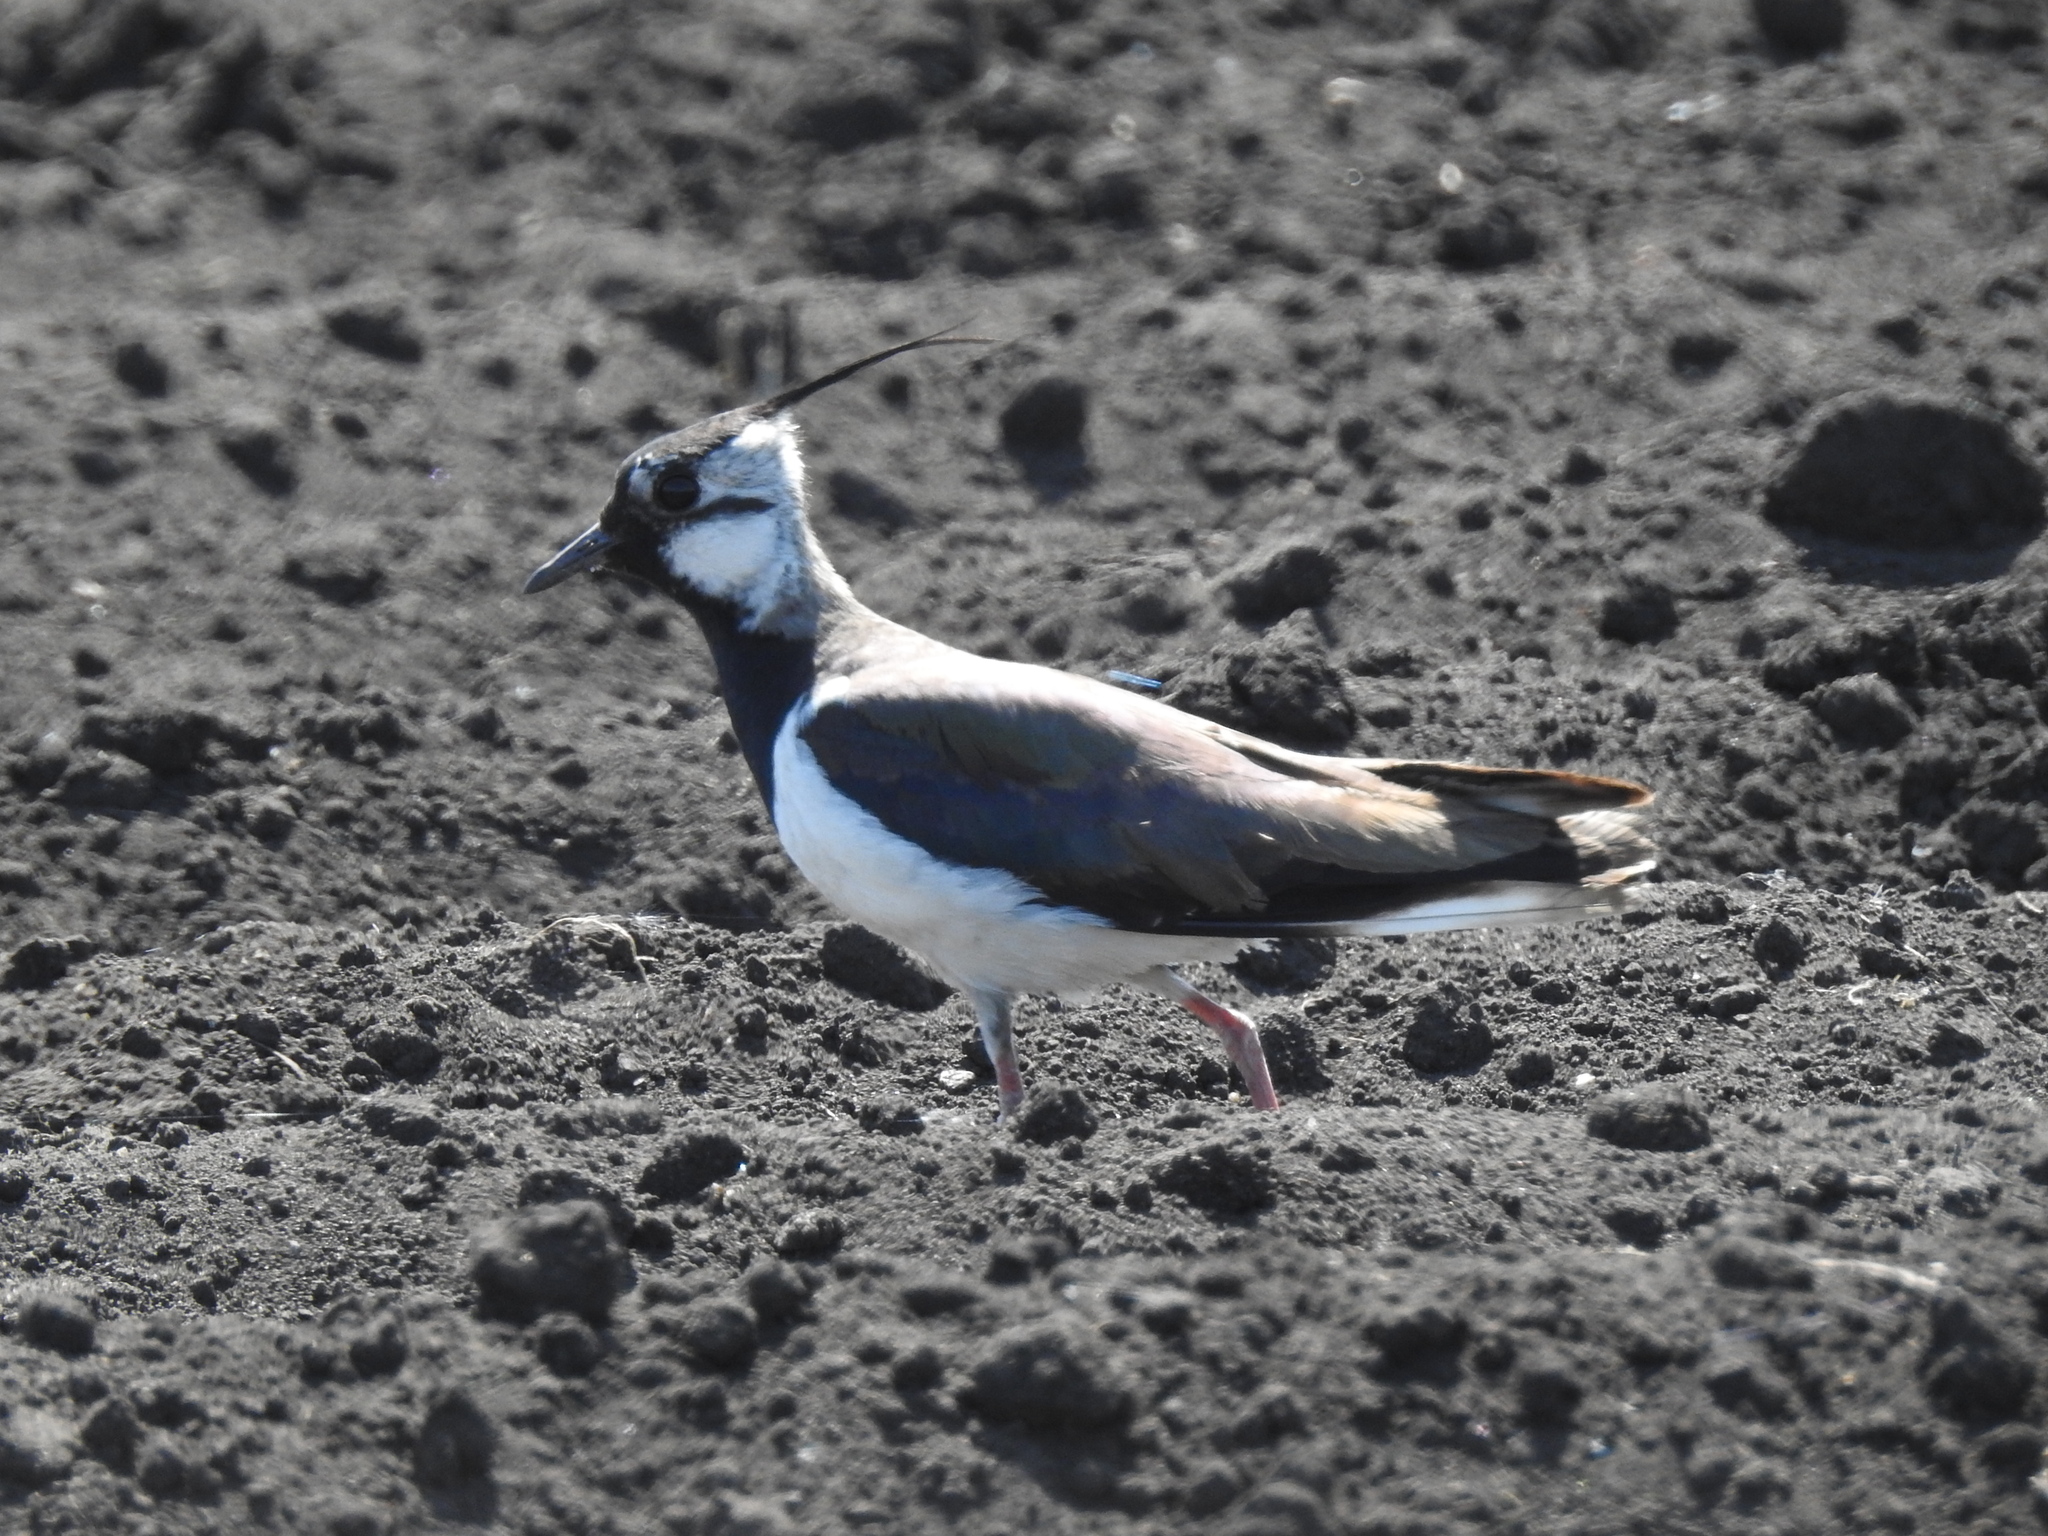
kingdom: Animalia
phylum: Chordata
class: Aves
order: Charadriiformes
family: Charadriidae
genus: Vanellus
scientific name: Vanellus vanellus
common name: Northern lapwing
